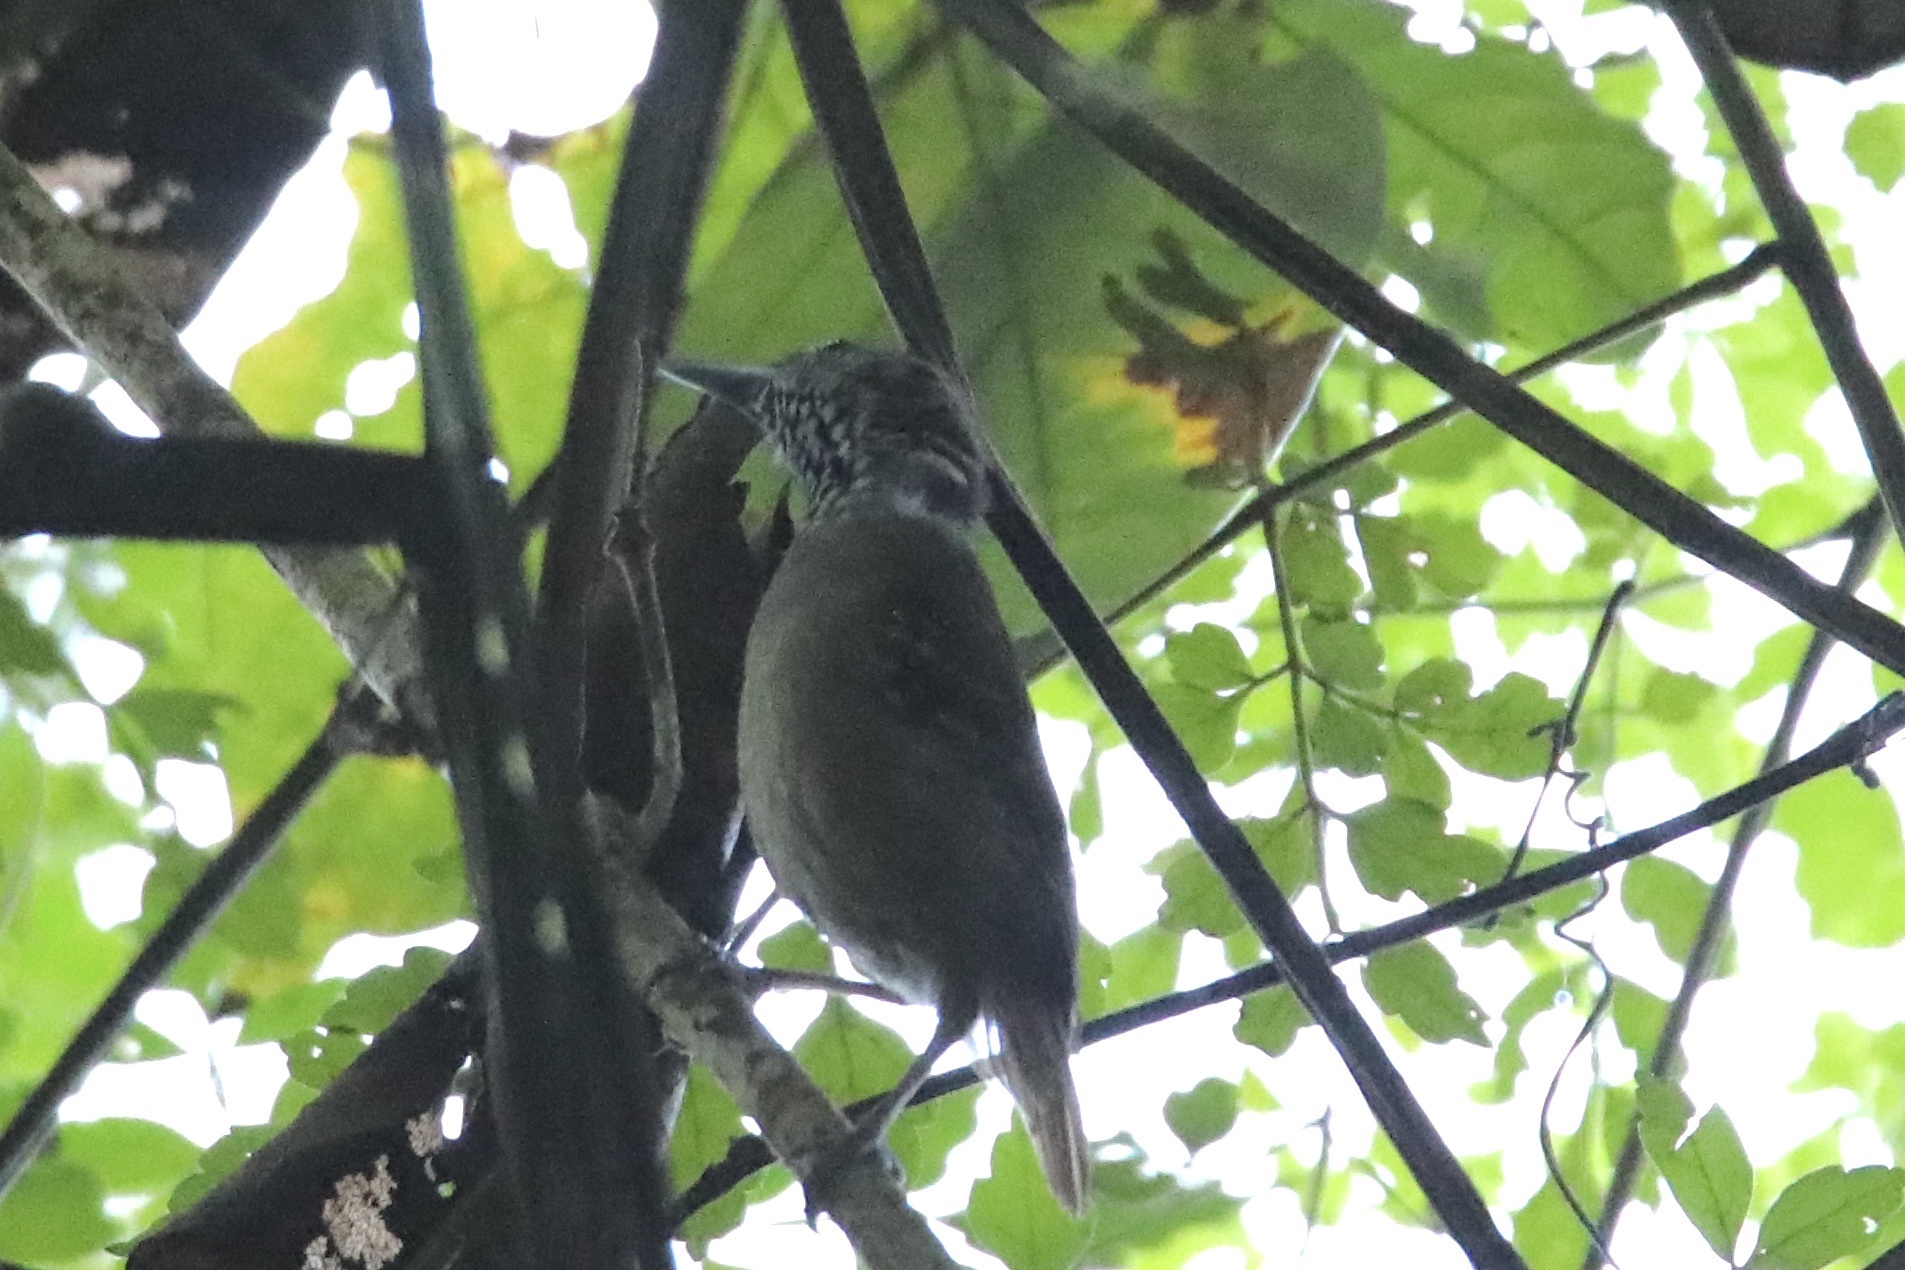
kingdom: Animalia
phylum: Chordata
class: Aves
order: Passeriformes
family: Thamnophilidae
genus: Epinecrophylla
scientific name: Epinecrophylla fulviventris
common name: Checker-throated antwren
